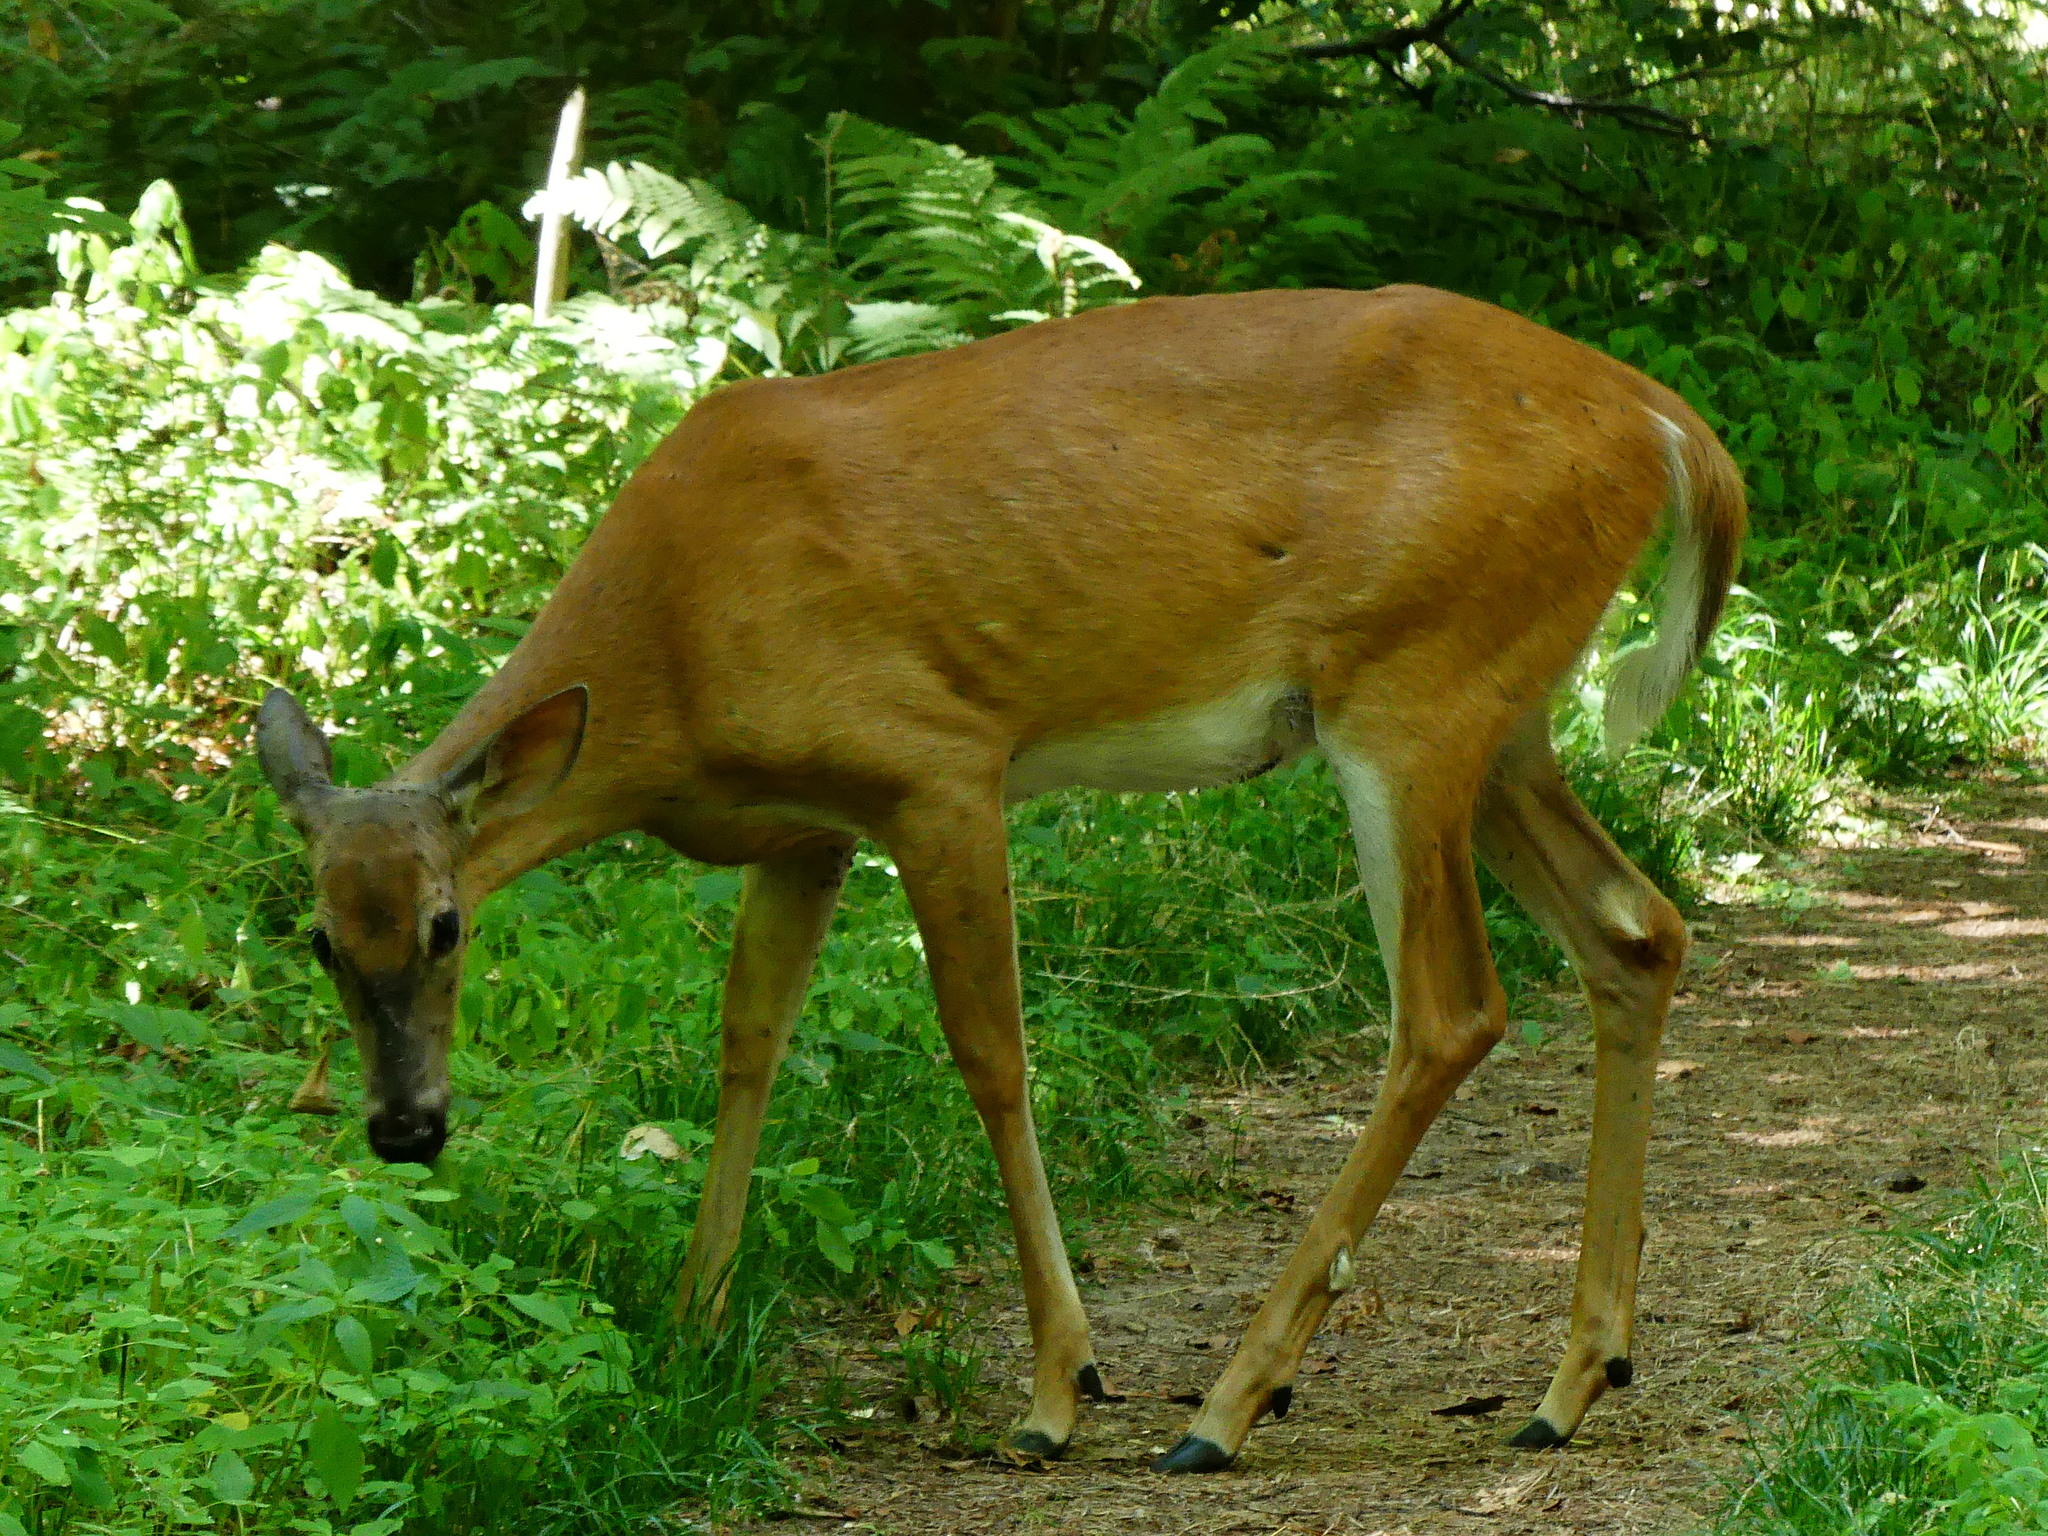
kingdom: Animalia
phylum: Chordata
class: Mammalia
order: Artiodactyla
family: Cervidae
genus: Odocoileus
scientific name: Odocoileus virginianus
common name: White-tailed deer
